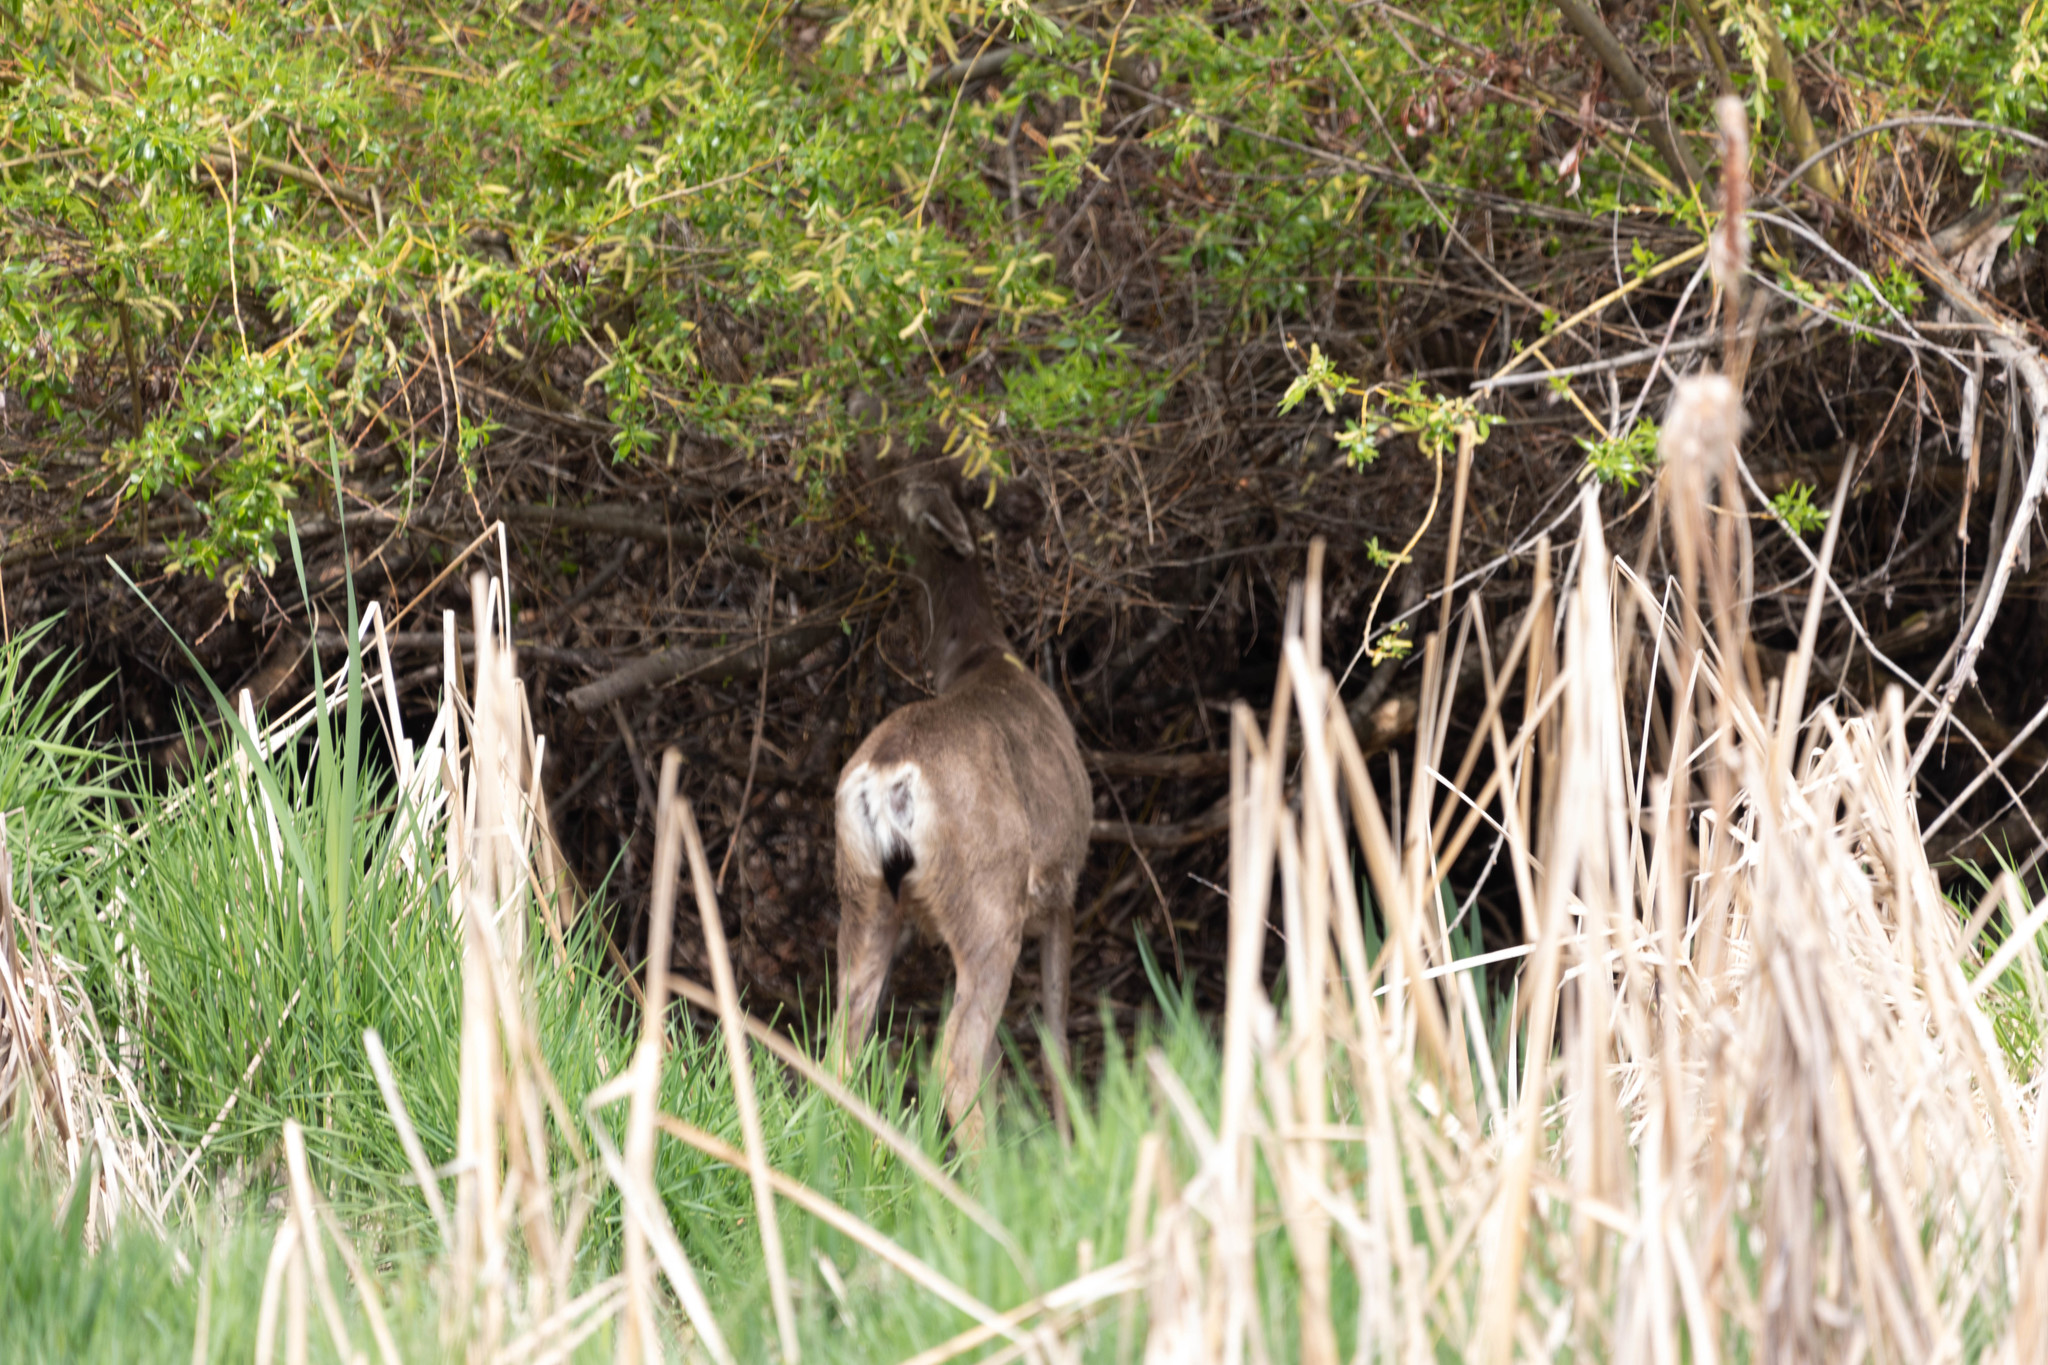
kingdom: Animalia
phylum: Chordata
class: Mammalia
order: Artiodactyla
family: Cervidae
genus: Odocoileus
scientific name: Odocoileus hemionus
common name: Mule deer
